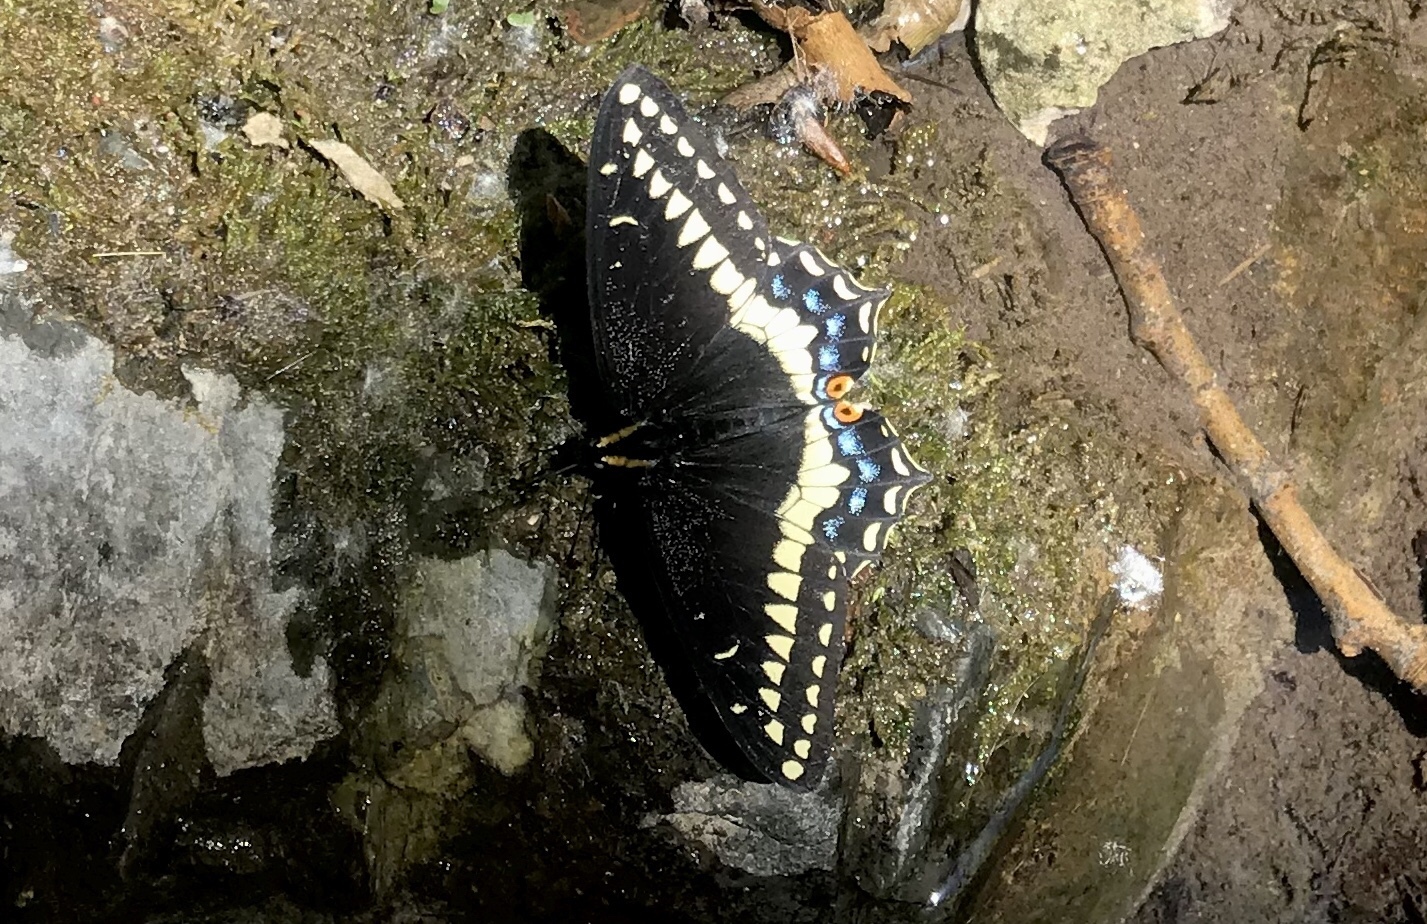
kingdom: Animalia
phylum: Arthropoda
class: Insecta
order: Lepidoptera
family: Papilionidae
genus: Papilio
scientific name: Papilio indra
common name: Cliff swallowtail
